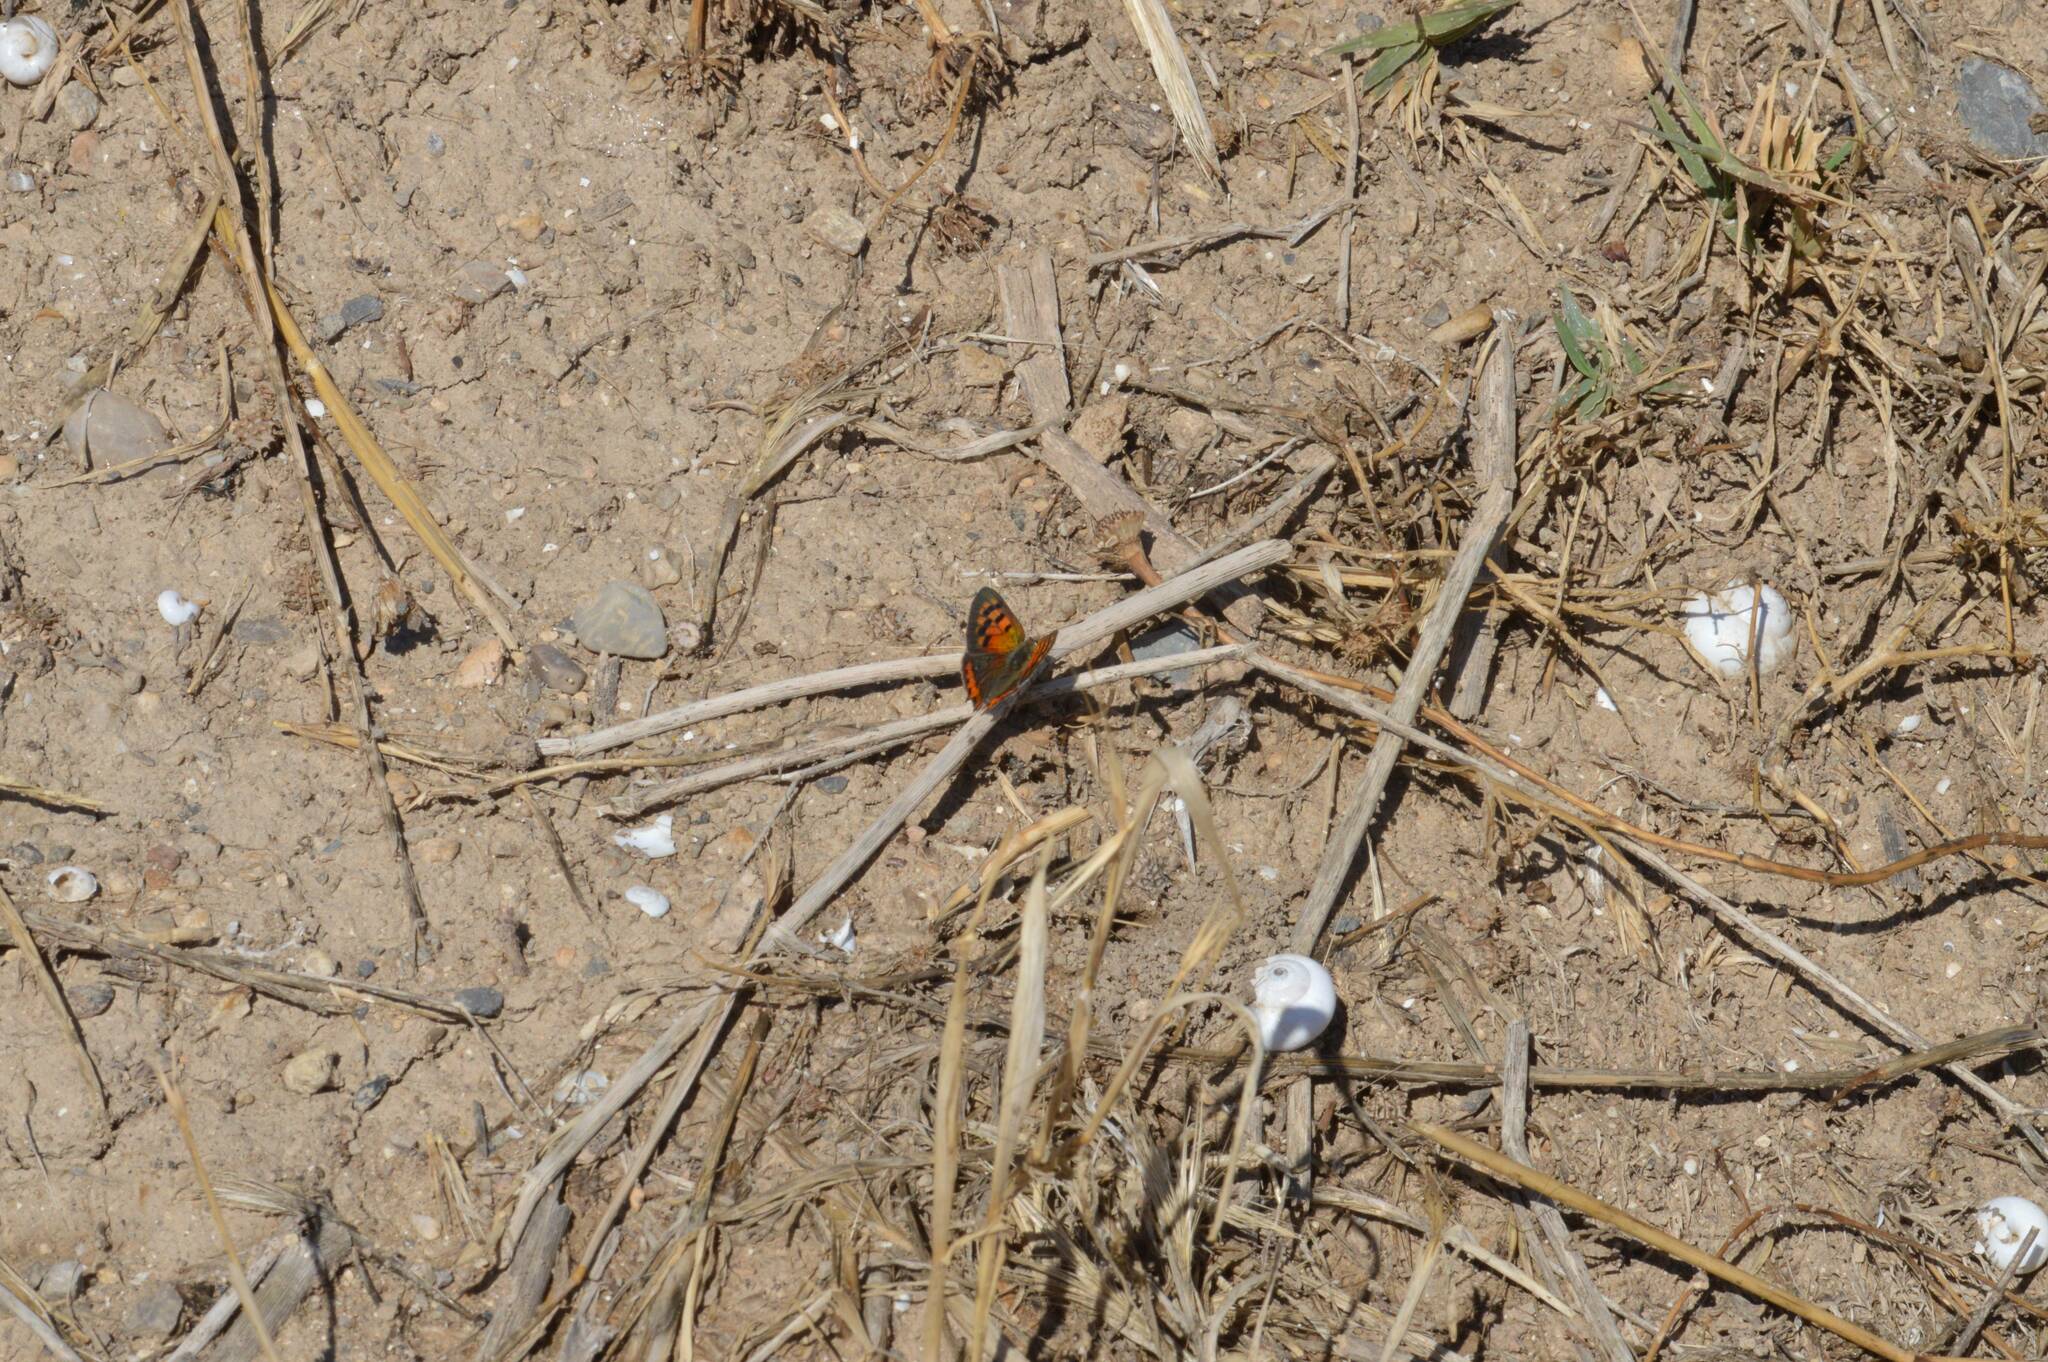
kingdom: Animalia
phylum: Arthropoda
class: Insecta
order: Lepidoptera
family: Lycaenidae
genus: Lycaena
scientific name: Lycaena phlaeas
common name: Small copper
